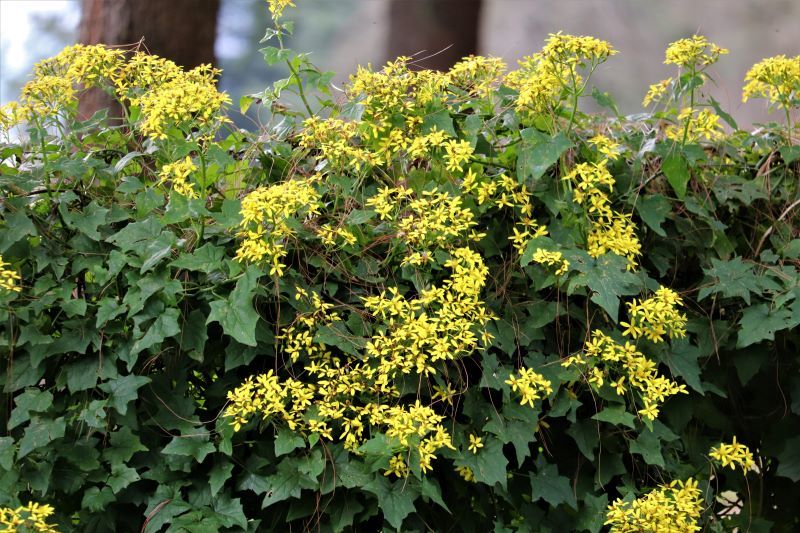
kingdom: Plantae
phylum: Tracheophyta
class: Magnoliopsida
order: Asterales
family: Asteraceae
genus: Senecio
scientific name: Senecio tamoides
